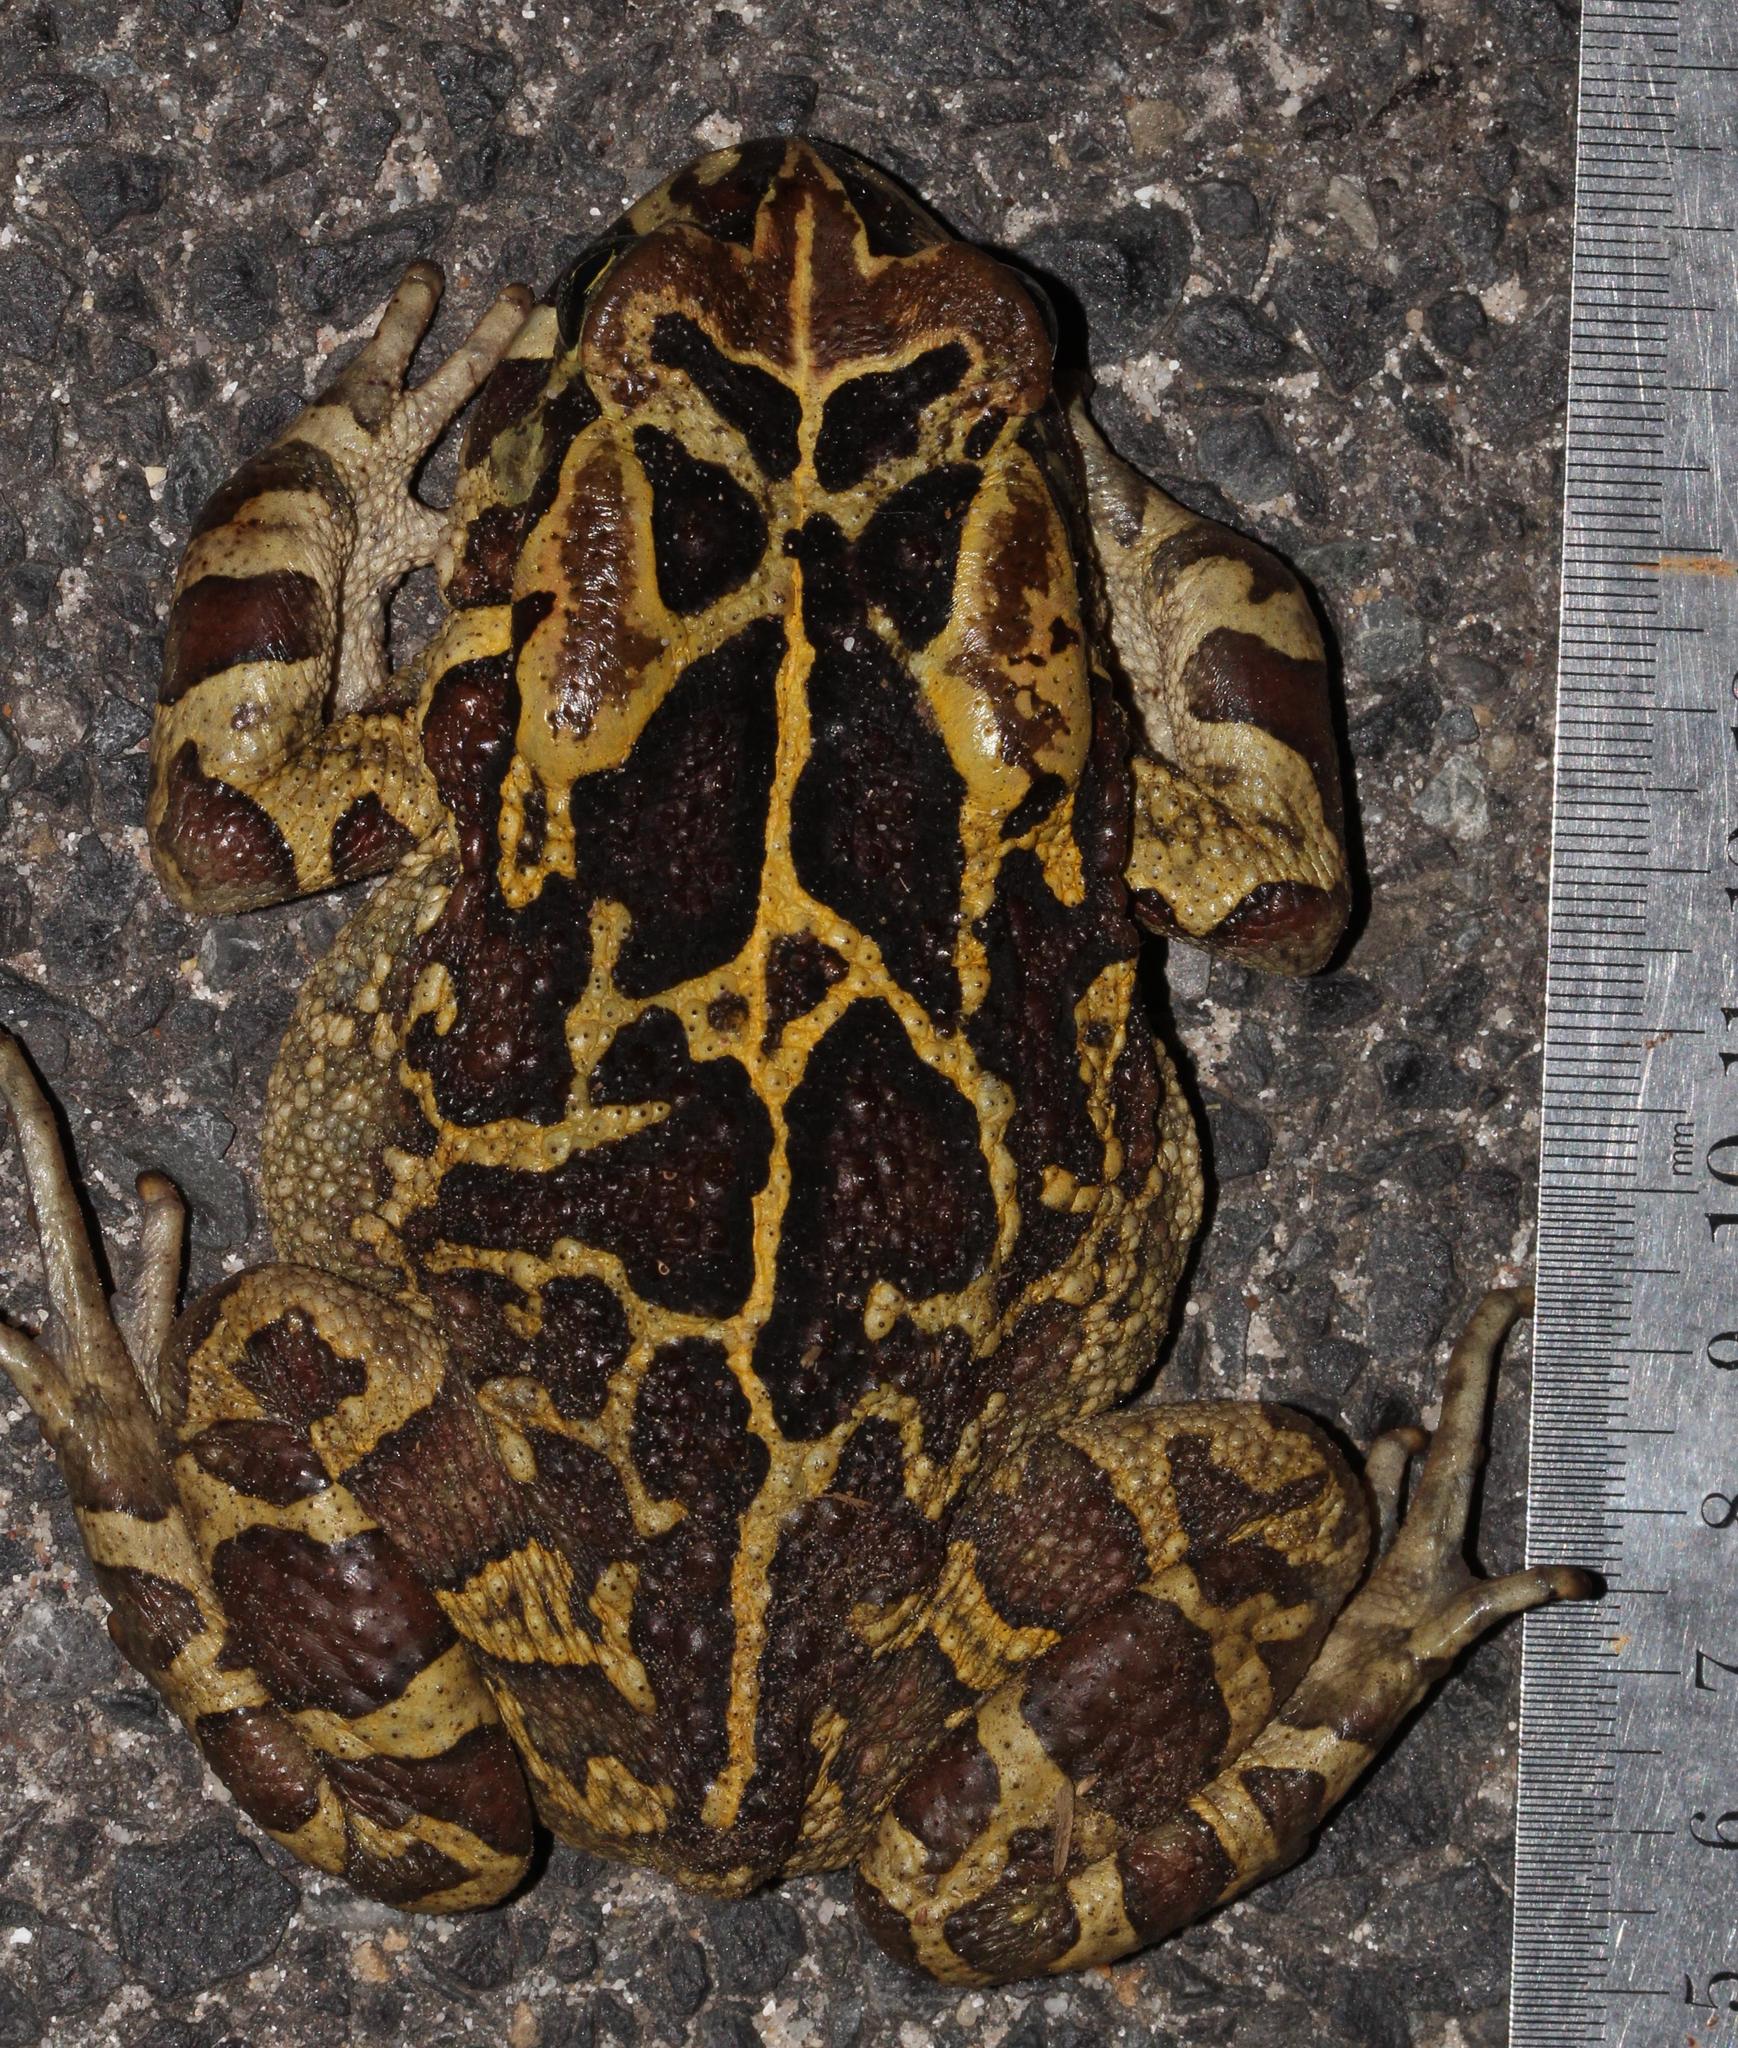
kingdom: Animalia
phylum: Chordata
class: Amphibia
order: Anura
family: Bufonidae
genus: Sclerophrys
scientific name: Sclerophrys pantherina
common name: Panther toad
